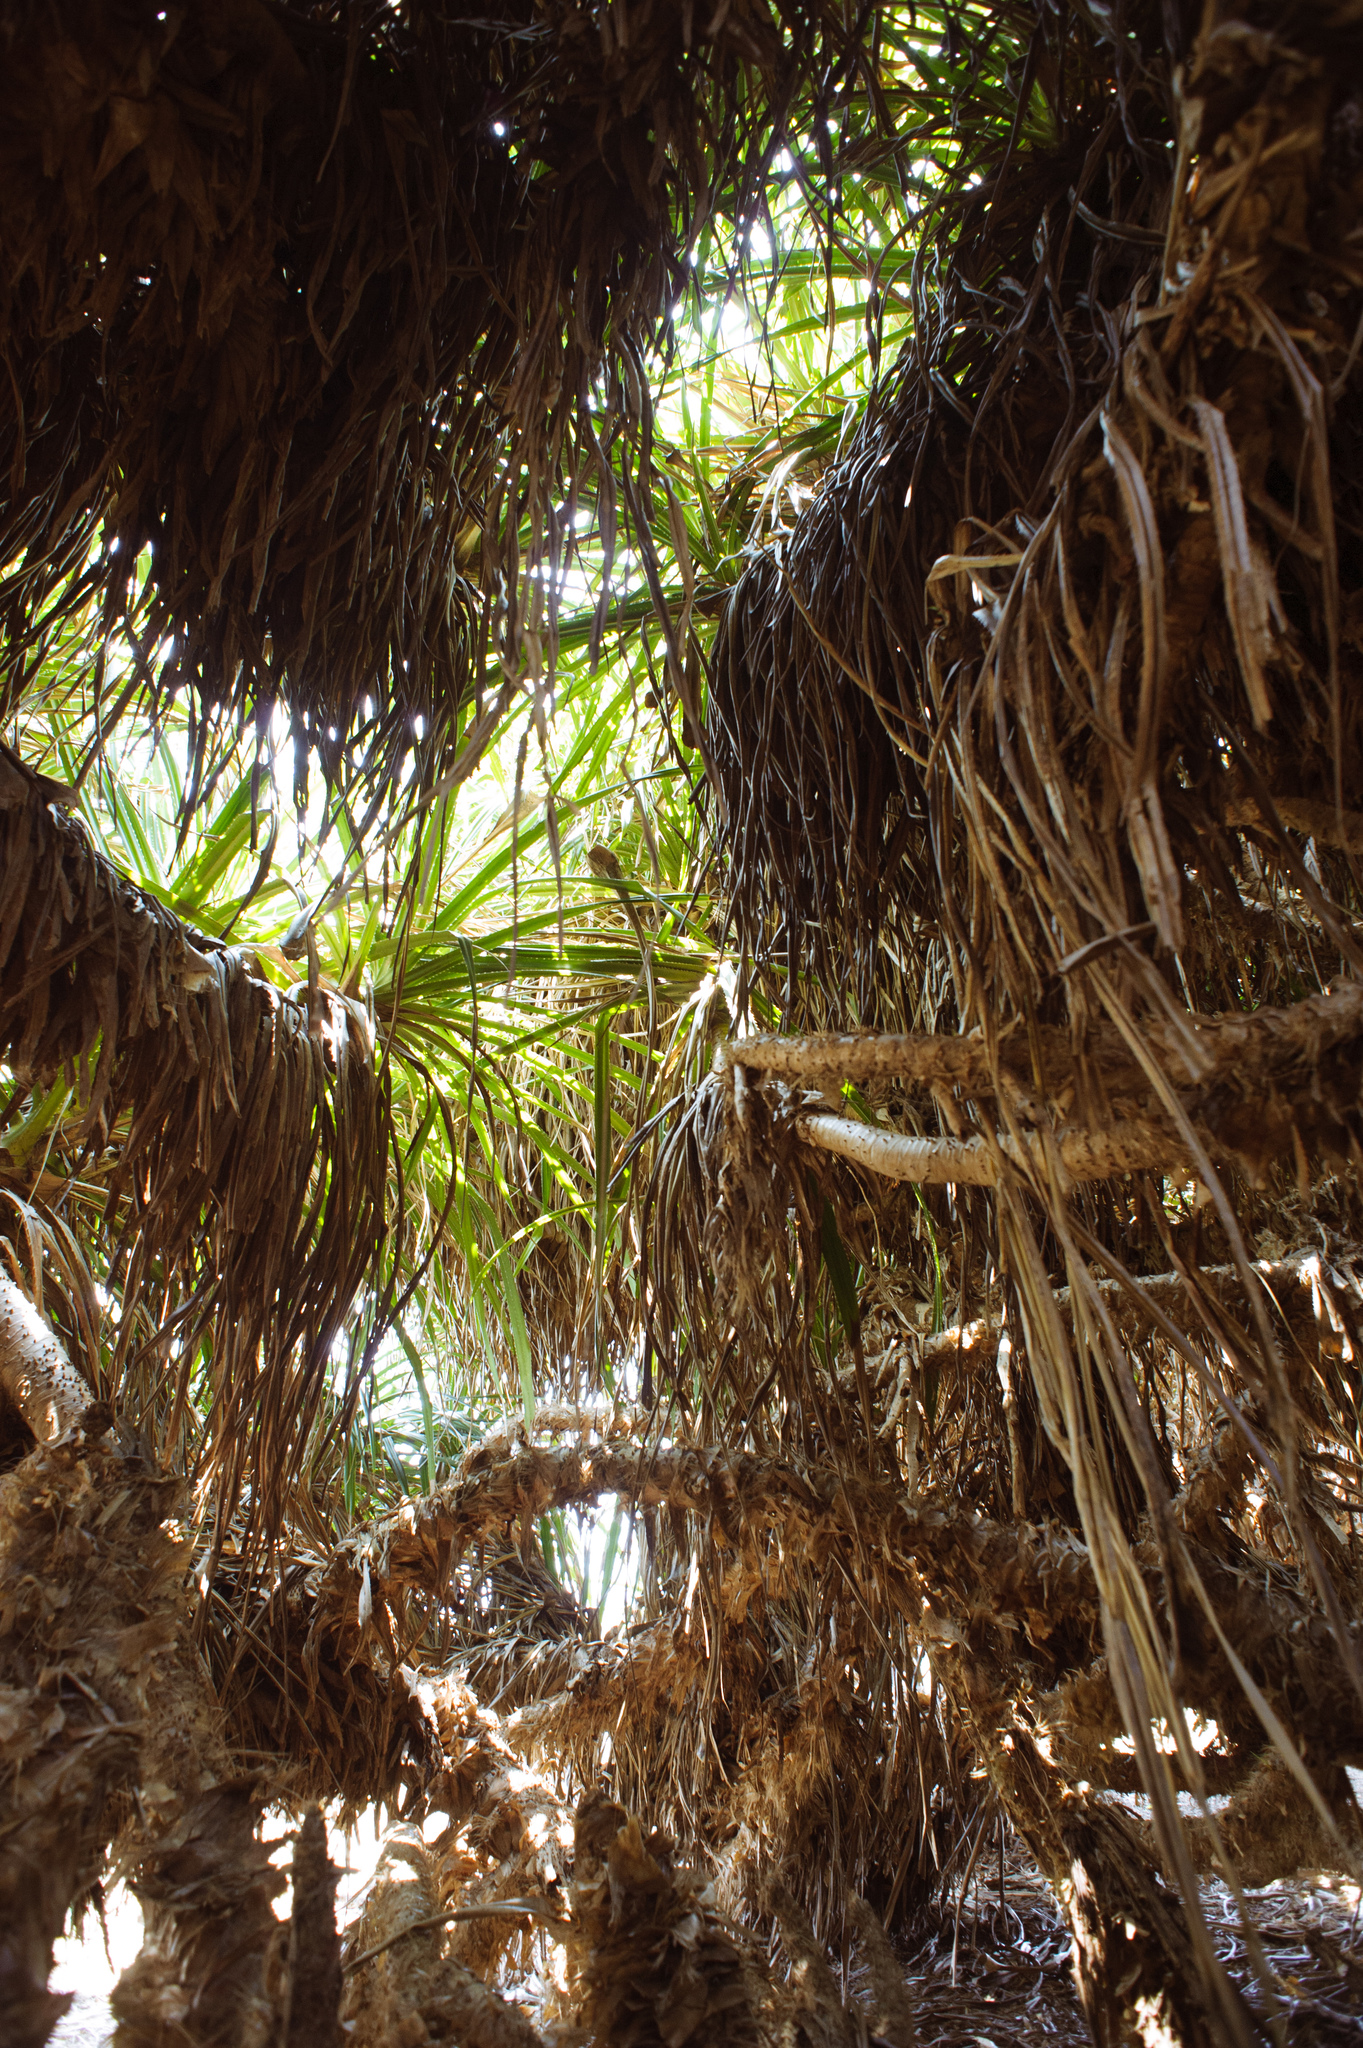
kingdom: Plantae
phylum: Tracheophyta
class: Liliopsida
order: Pandanales
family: Pandanaceae
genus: Pandanus
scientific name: Pandanus odorifer
